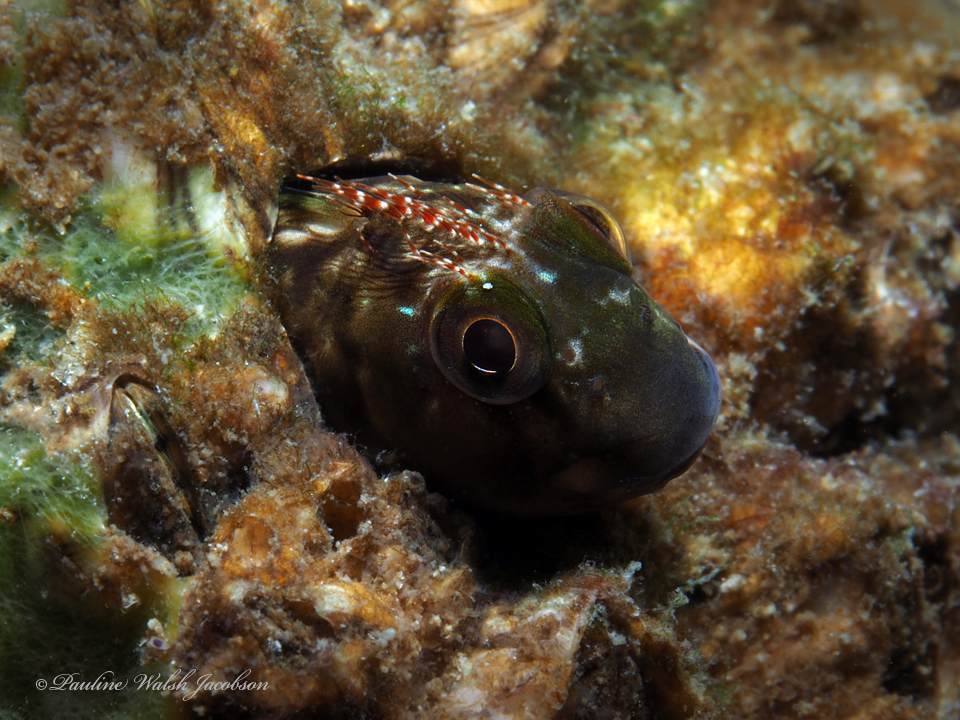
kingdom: Animalia
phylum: Chordata
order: Perciformes
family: Blenniidae
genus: Scartella
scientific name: Scartella cristata
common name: Molly miller
